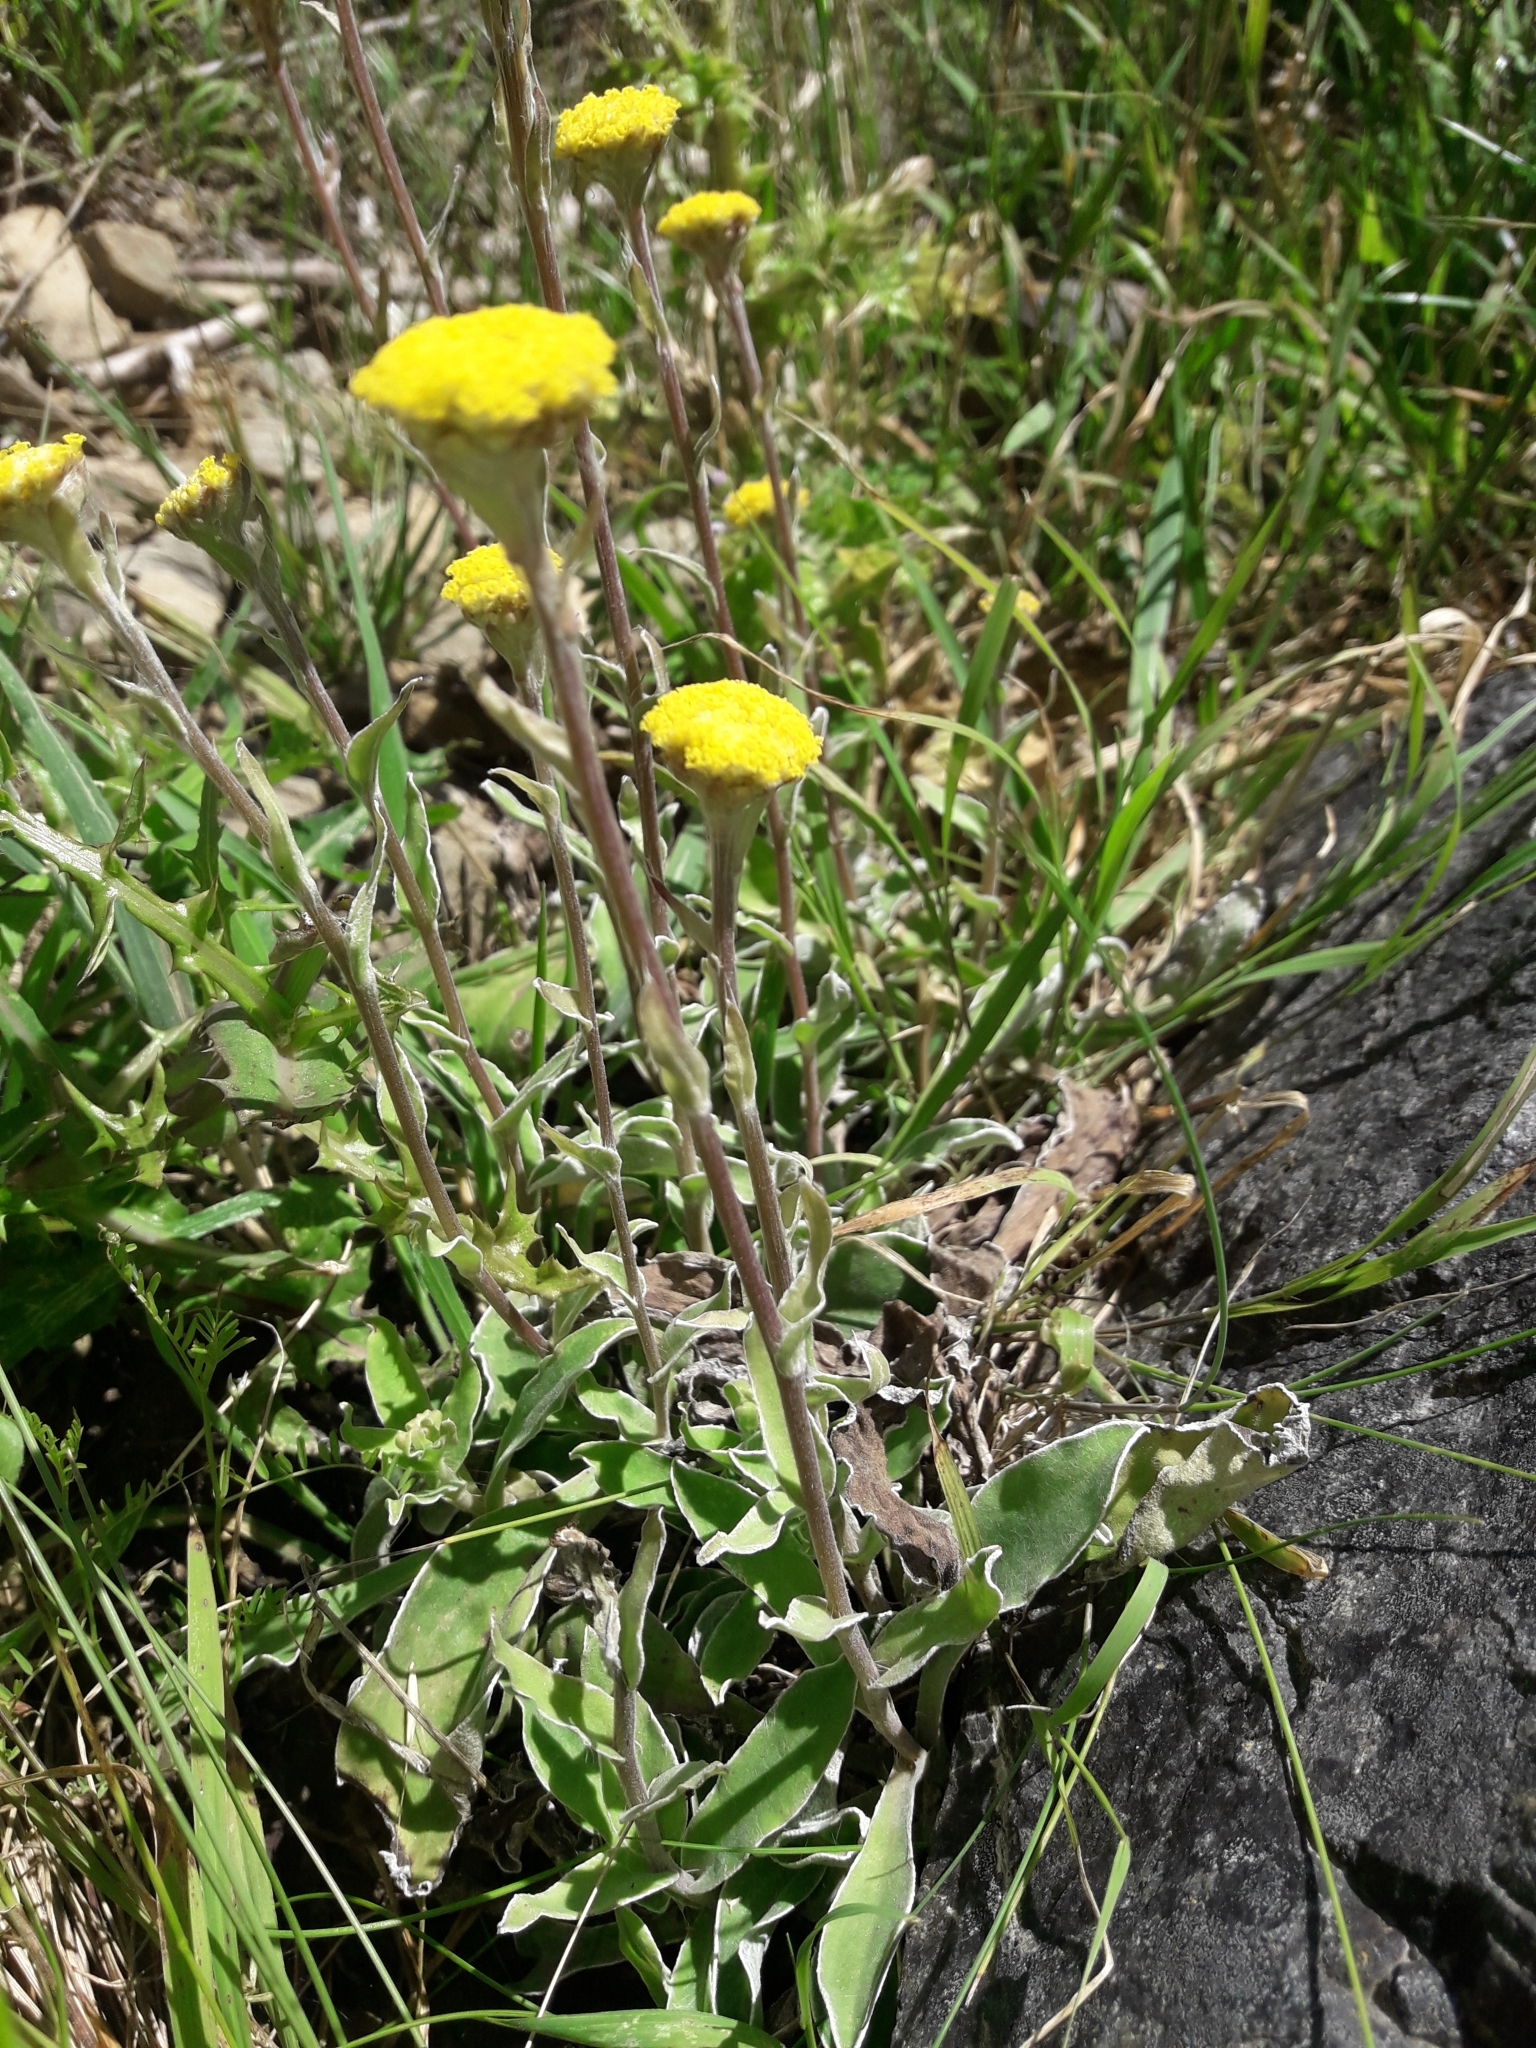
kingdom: Plantae
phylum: Tracheophyta
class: Magnoliopsida
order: Asterales
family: Asteraceae
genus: Craspedia
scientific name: Craspedia uniflora
